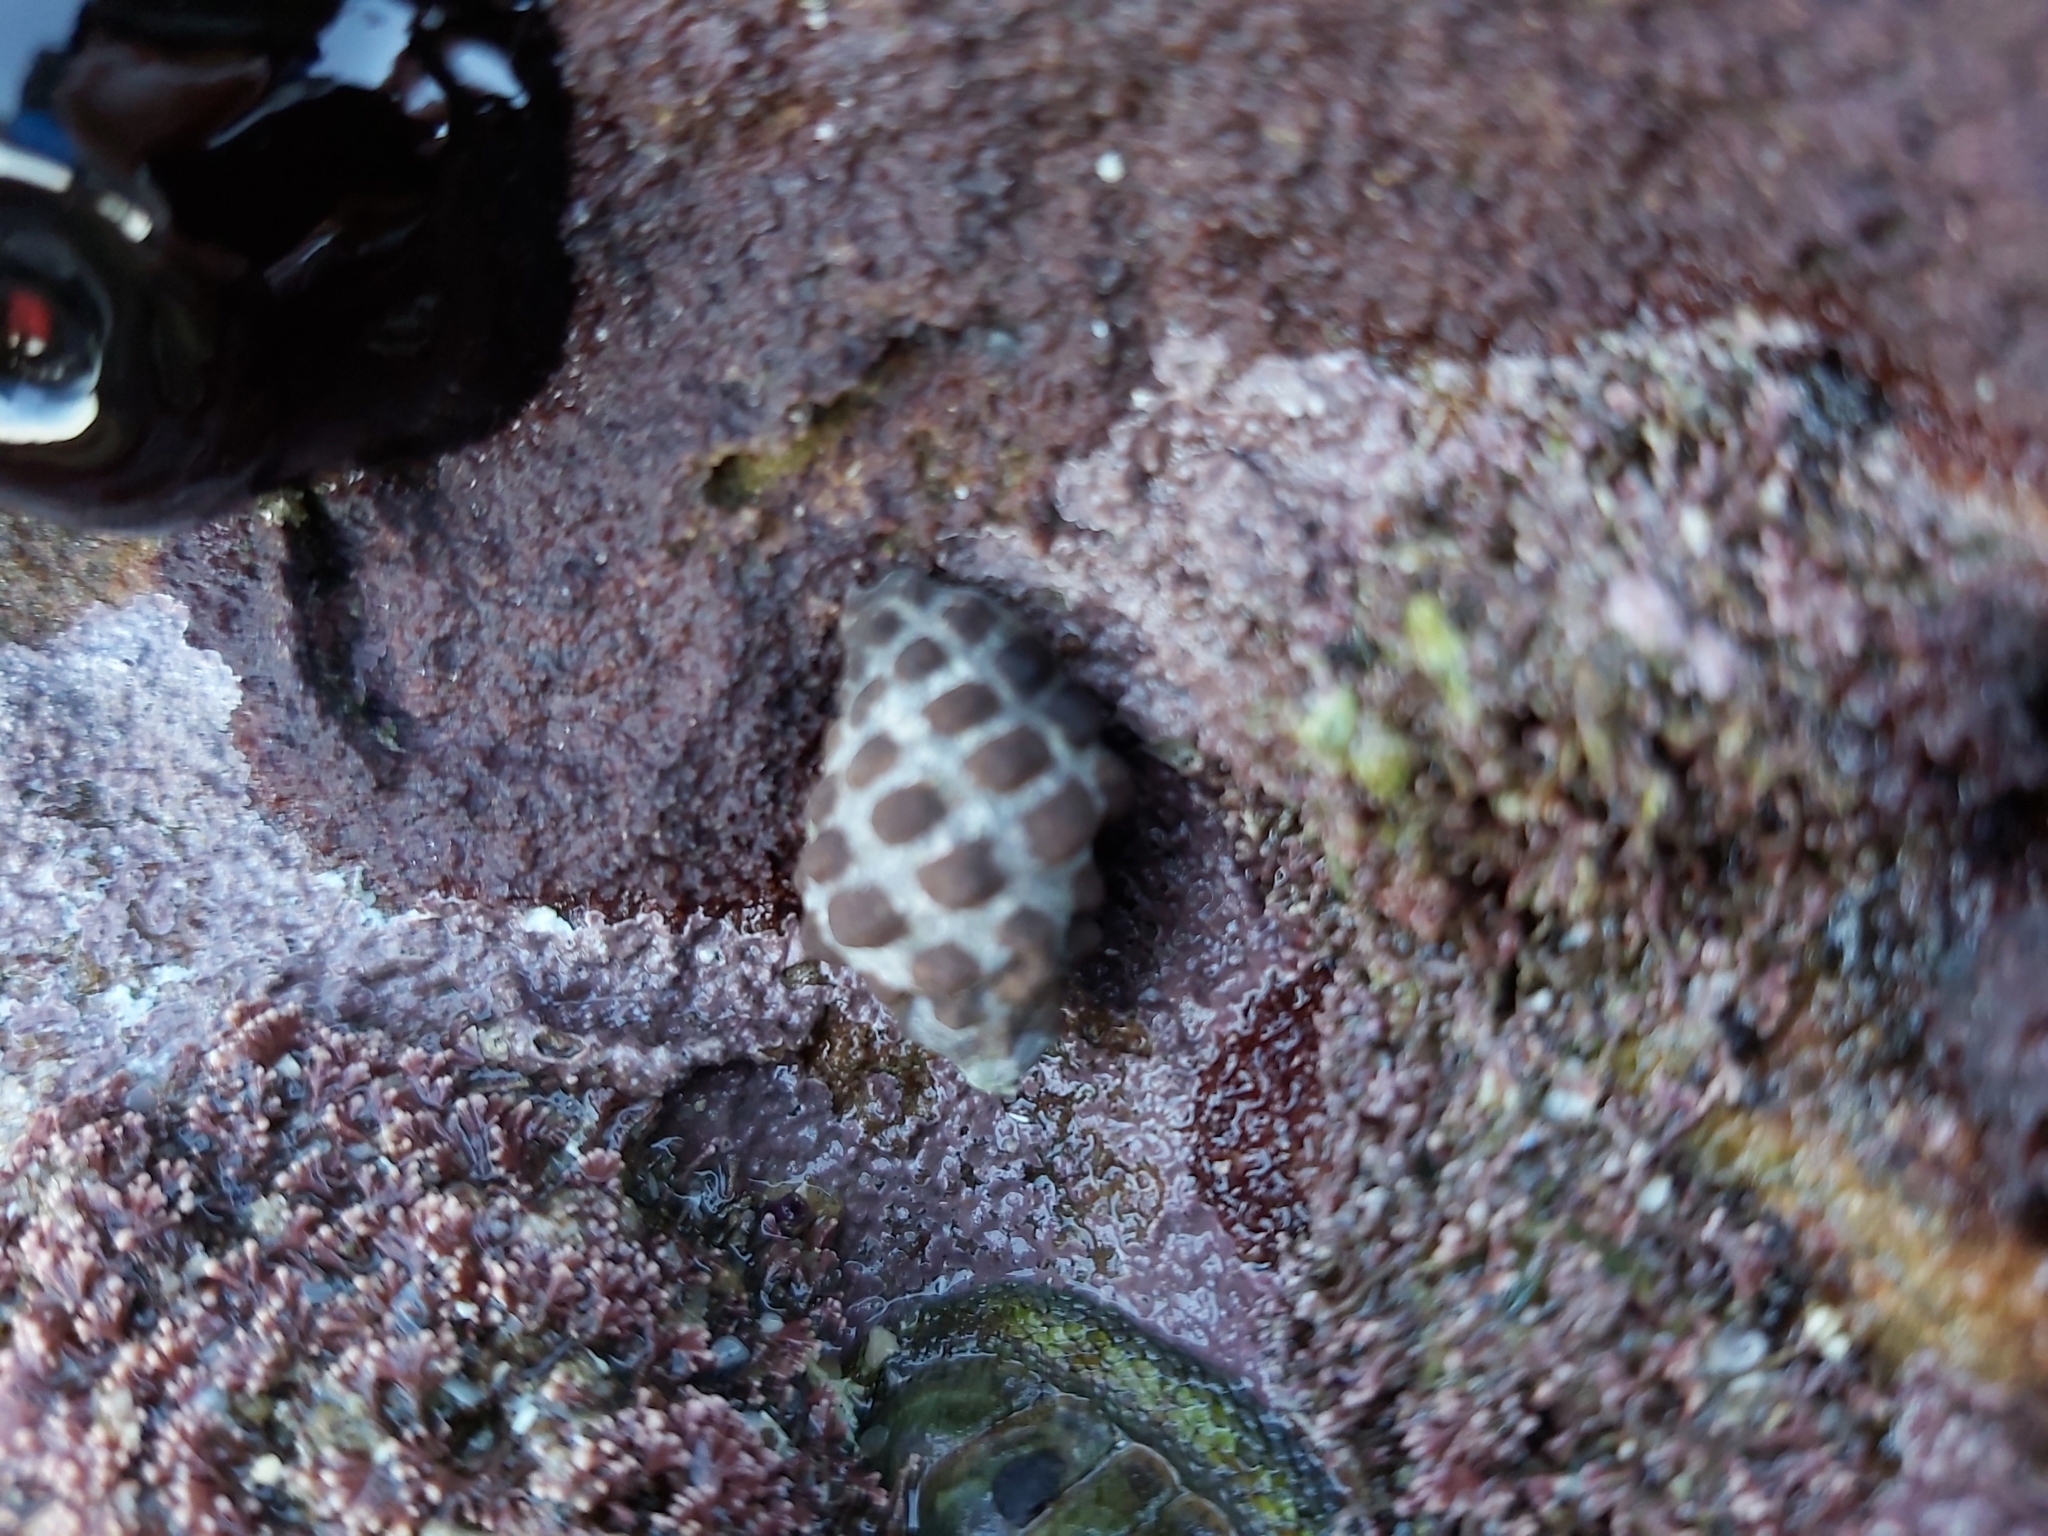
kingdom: Animalia
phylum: Mollusca
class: Gastropoda
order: Neogastropoda
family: Muricidae
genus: Tenguella
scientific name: Tenguella marginalba
